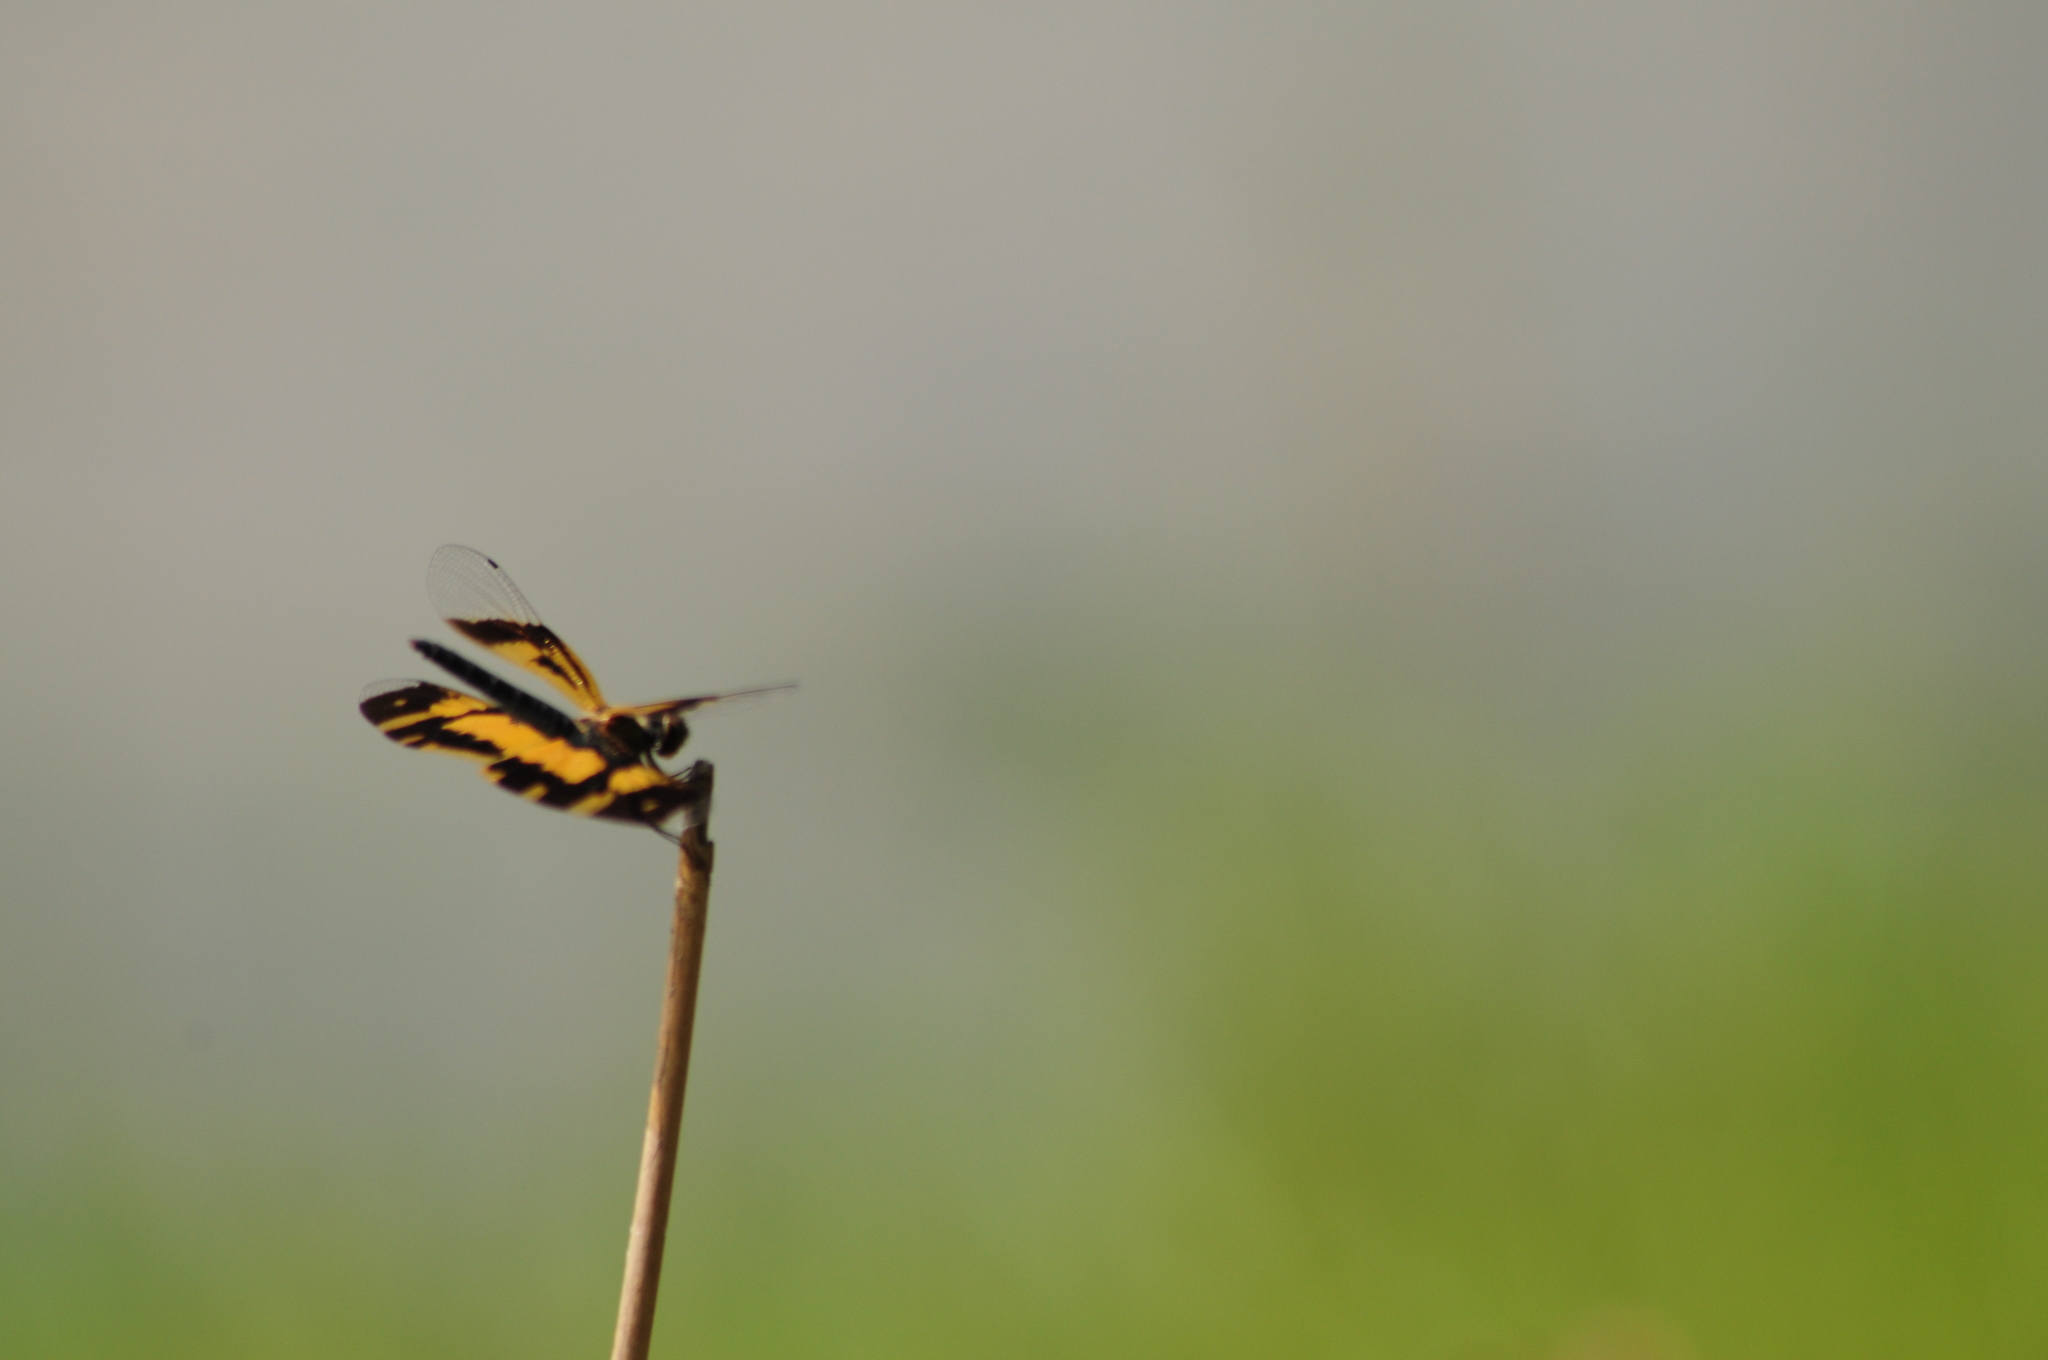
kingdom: Animalia
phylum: Arthropoda
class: Insecta
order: Odonata
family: Libellulidae
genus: Rhyothemis
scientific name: Rhyothemis variegata
